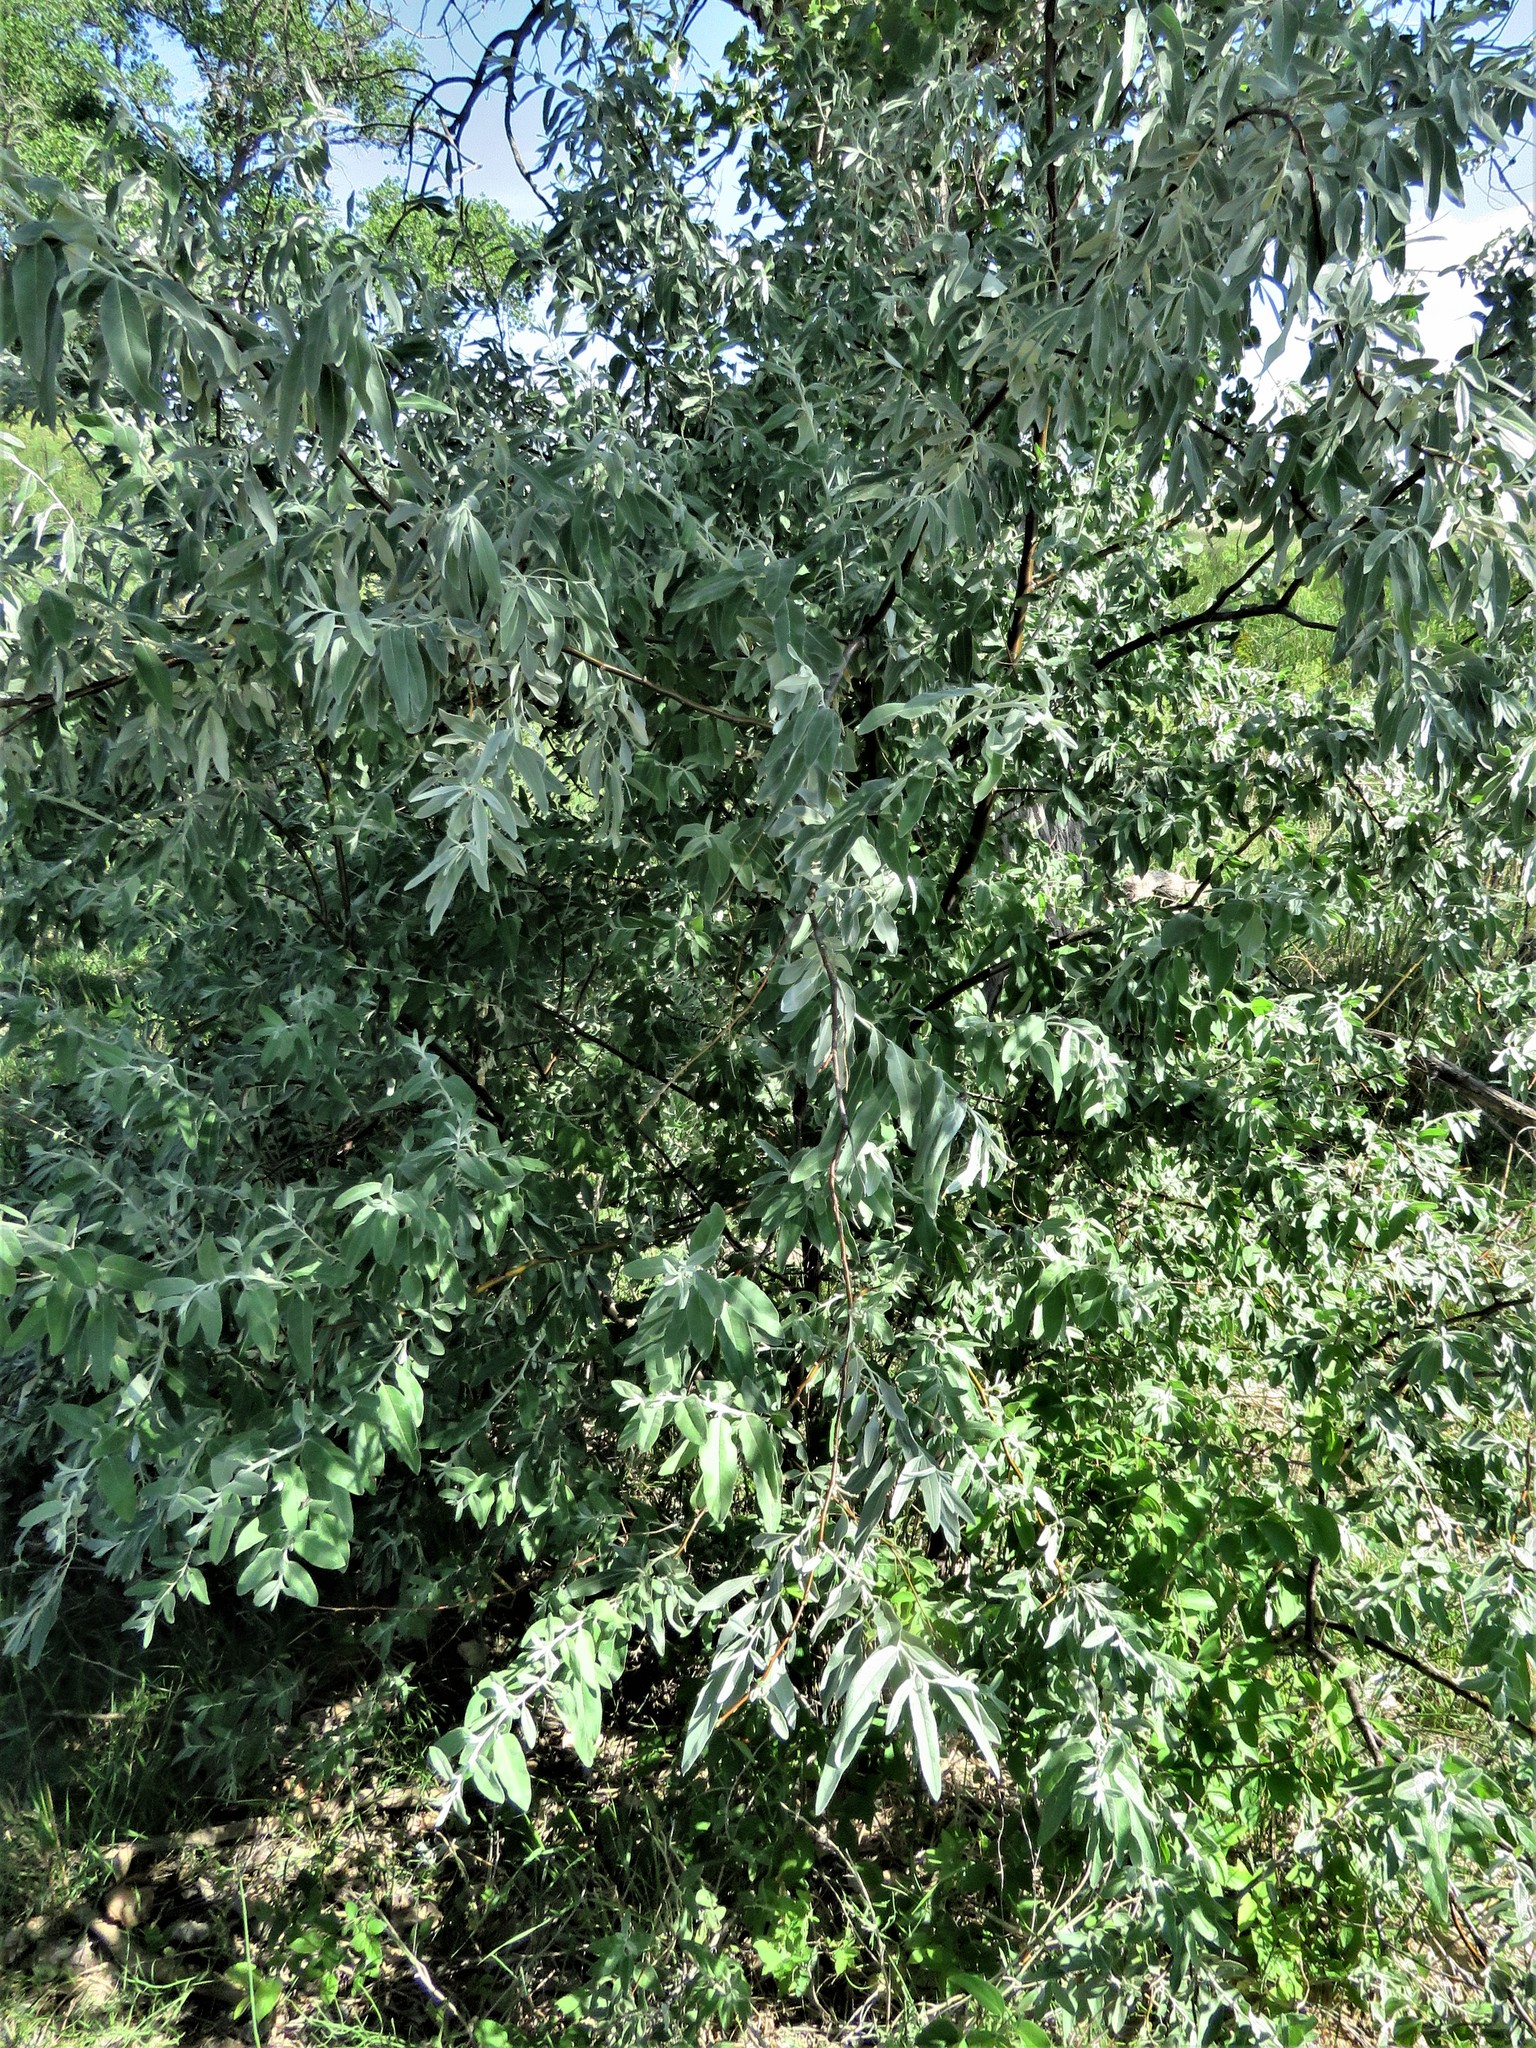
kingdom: Plantae
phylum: Tracheophyta
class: Magnoliopsida
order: Rosales
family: Elaeagnaceae
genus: Elaeagnus
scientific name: Elaeagnus angustifolia
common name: Russian olive
